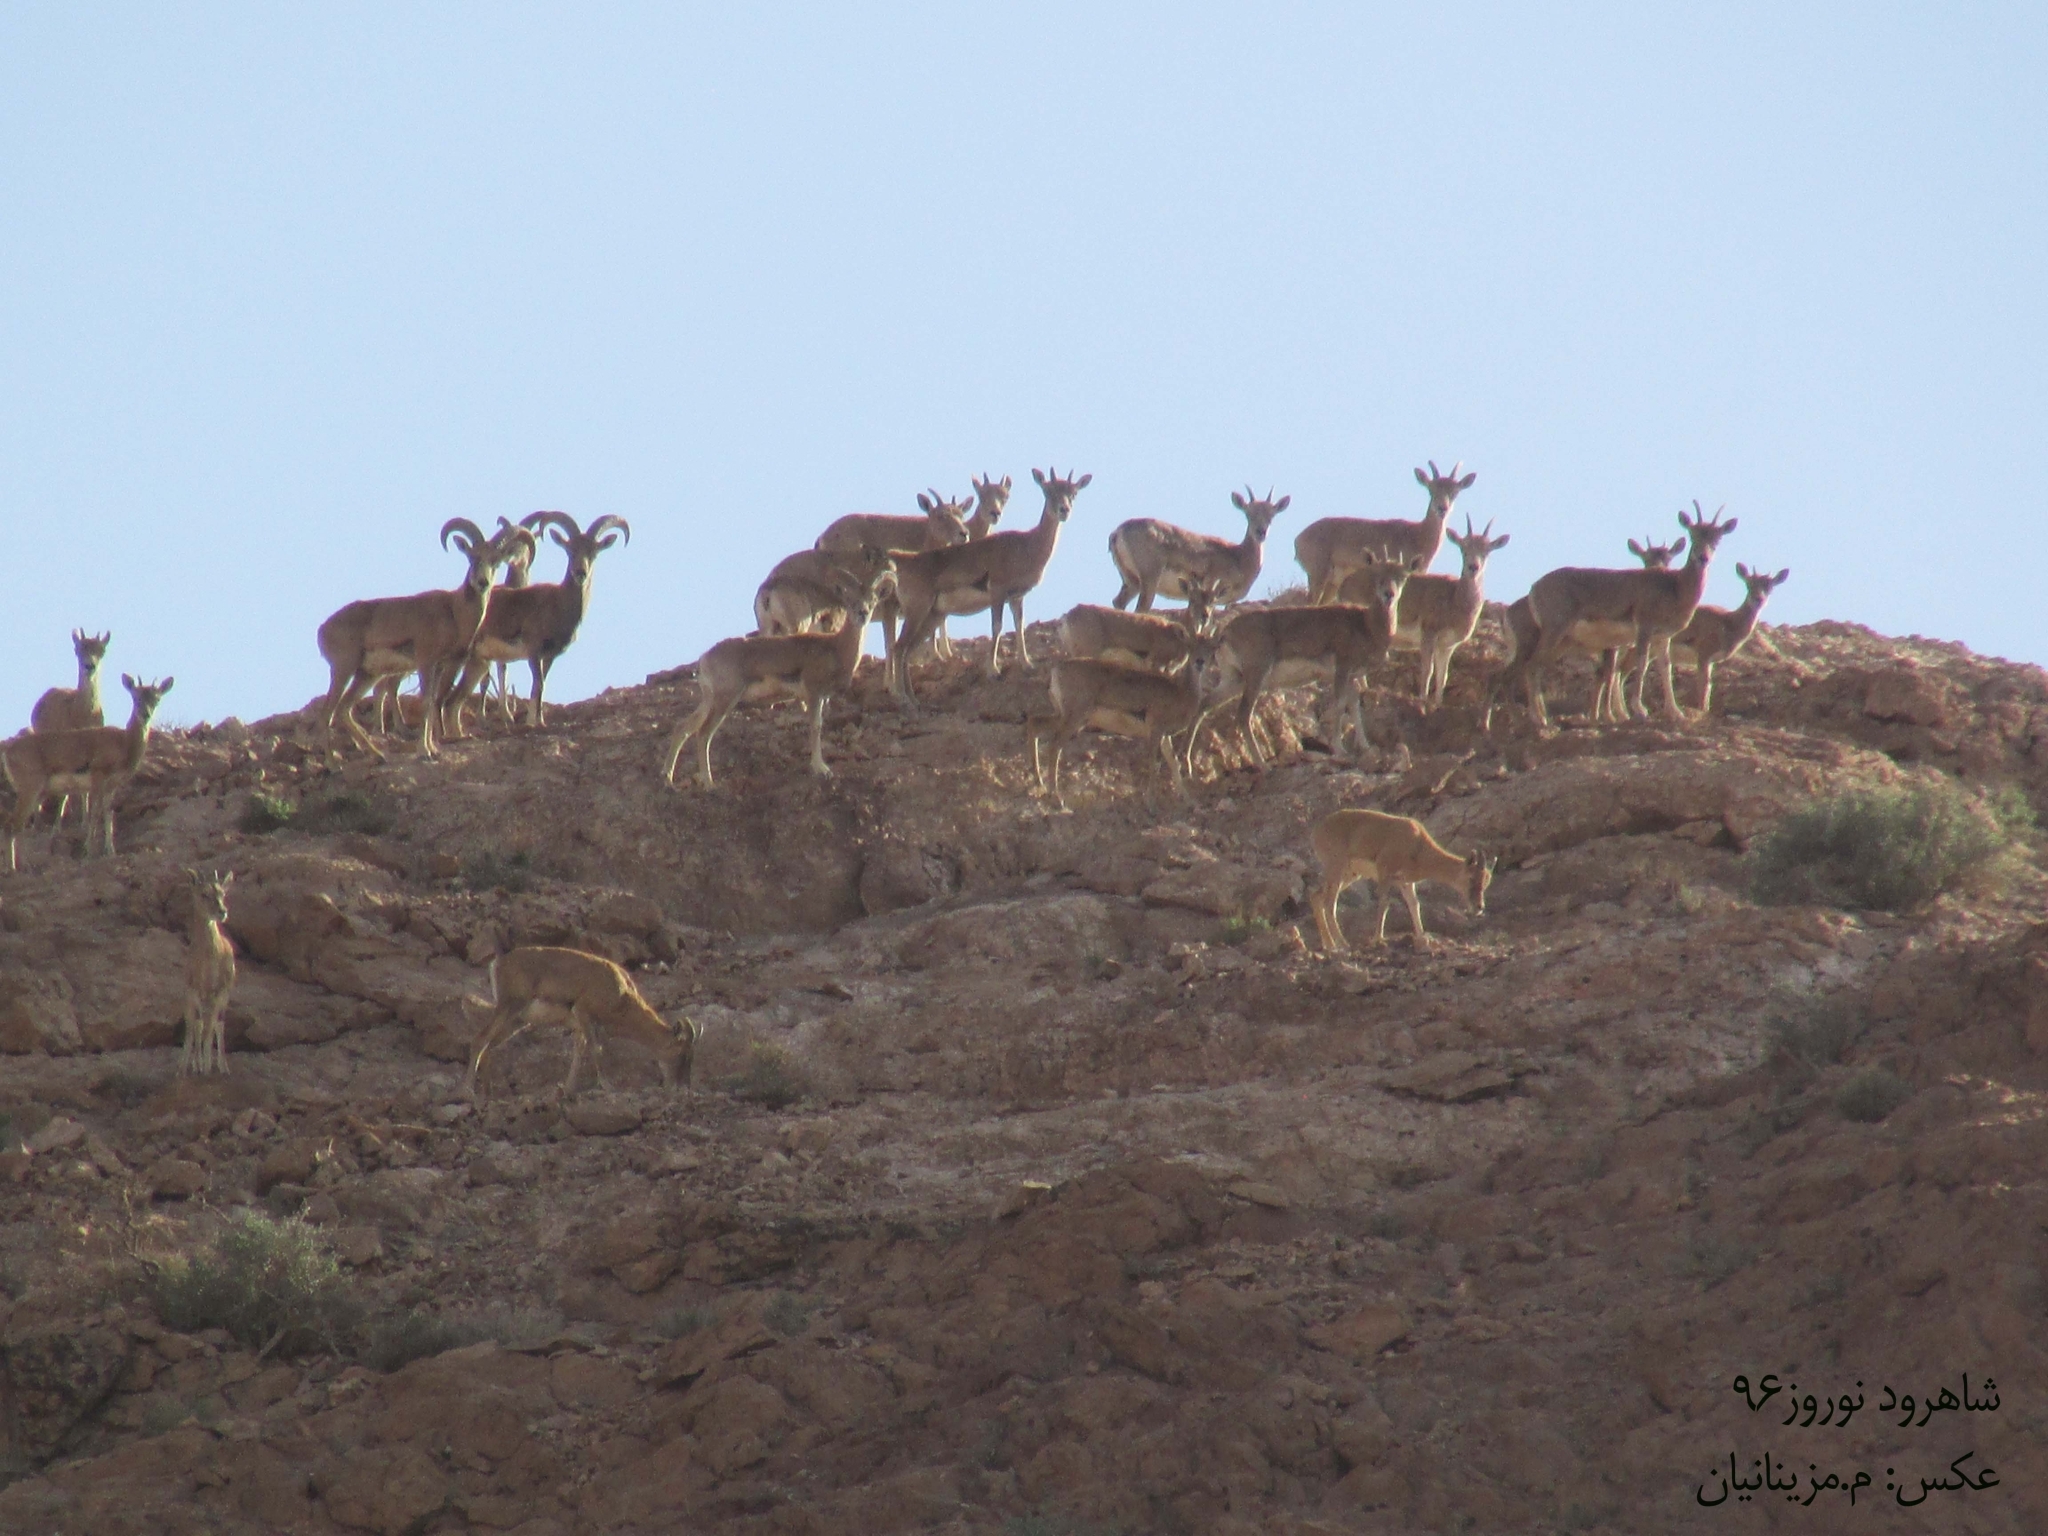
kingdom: Animalia
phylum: Chordata
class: Mammalia
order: Artiodactyla
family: Bovidae
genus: Ovis
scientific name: Ovis aries
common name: Domestic sheep
